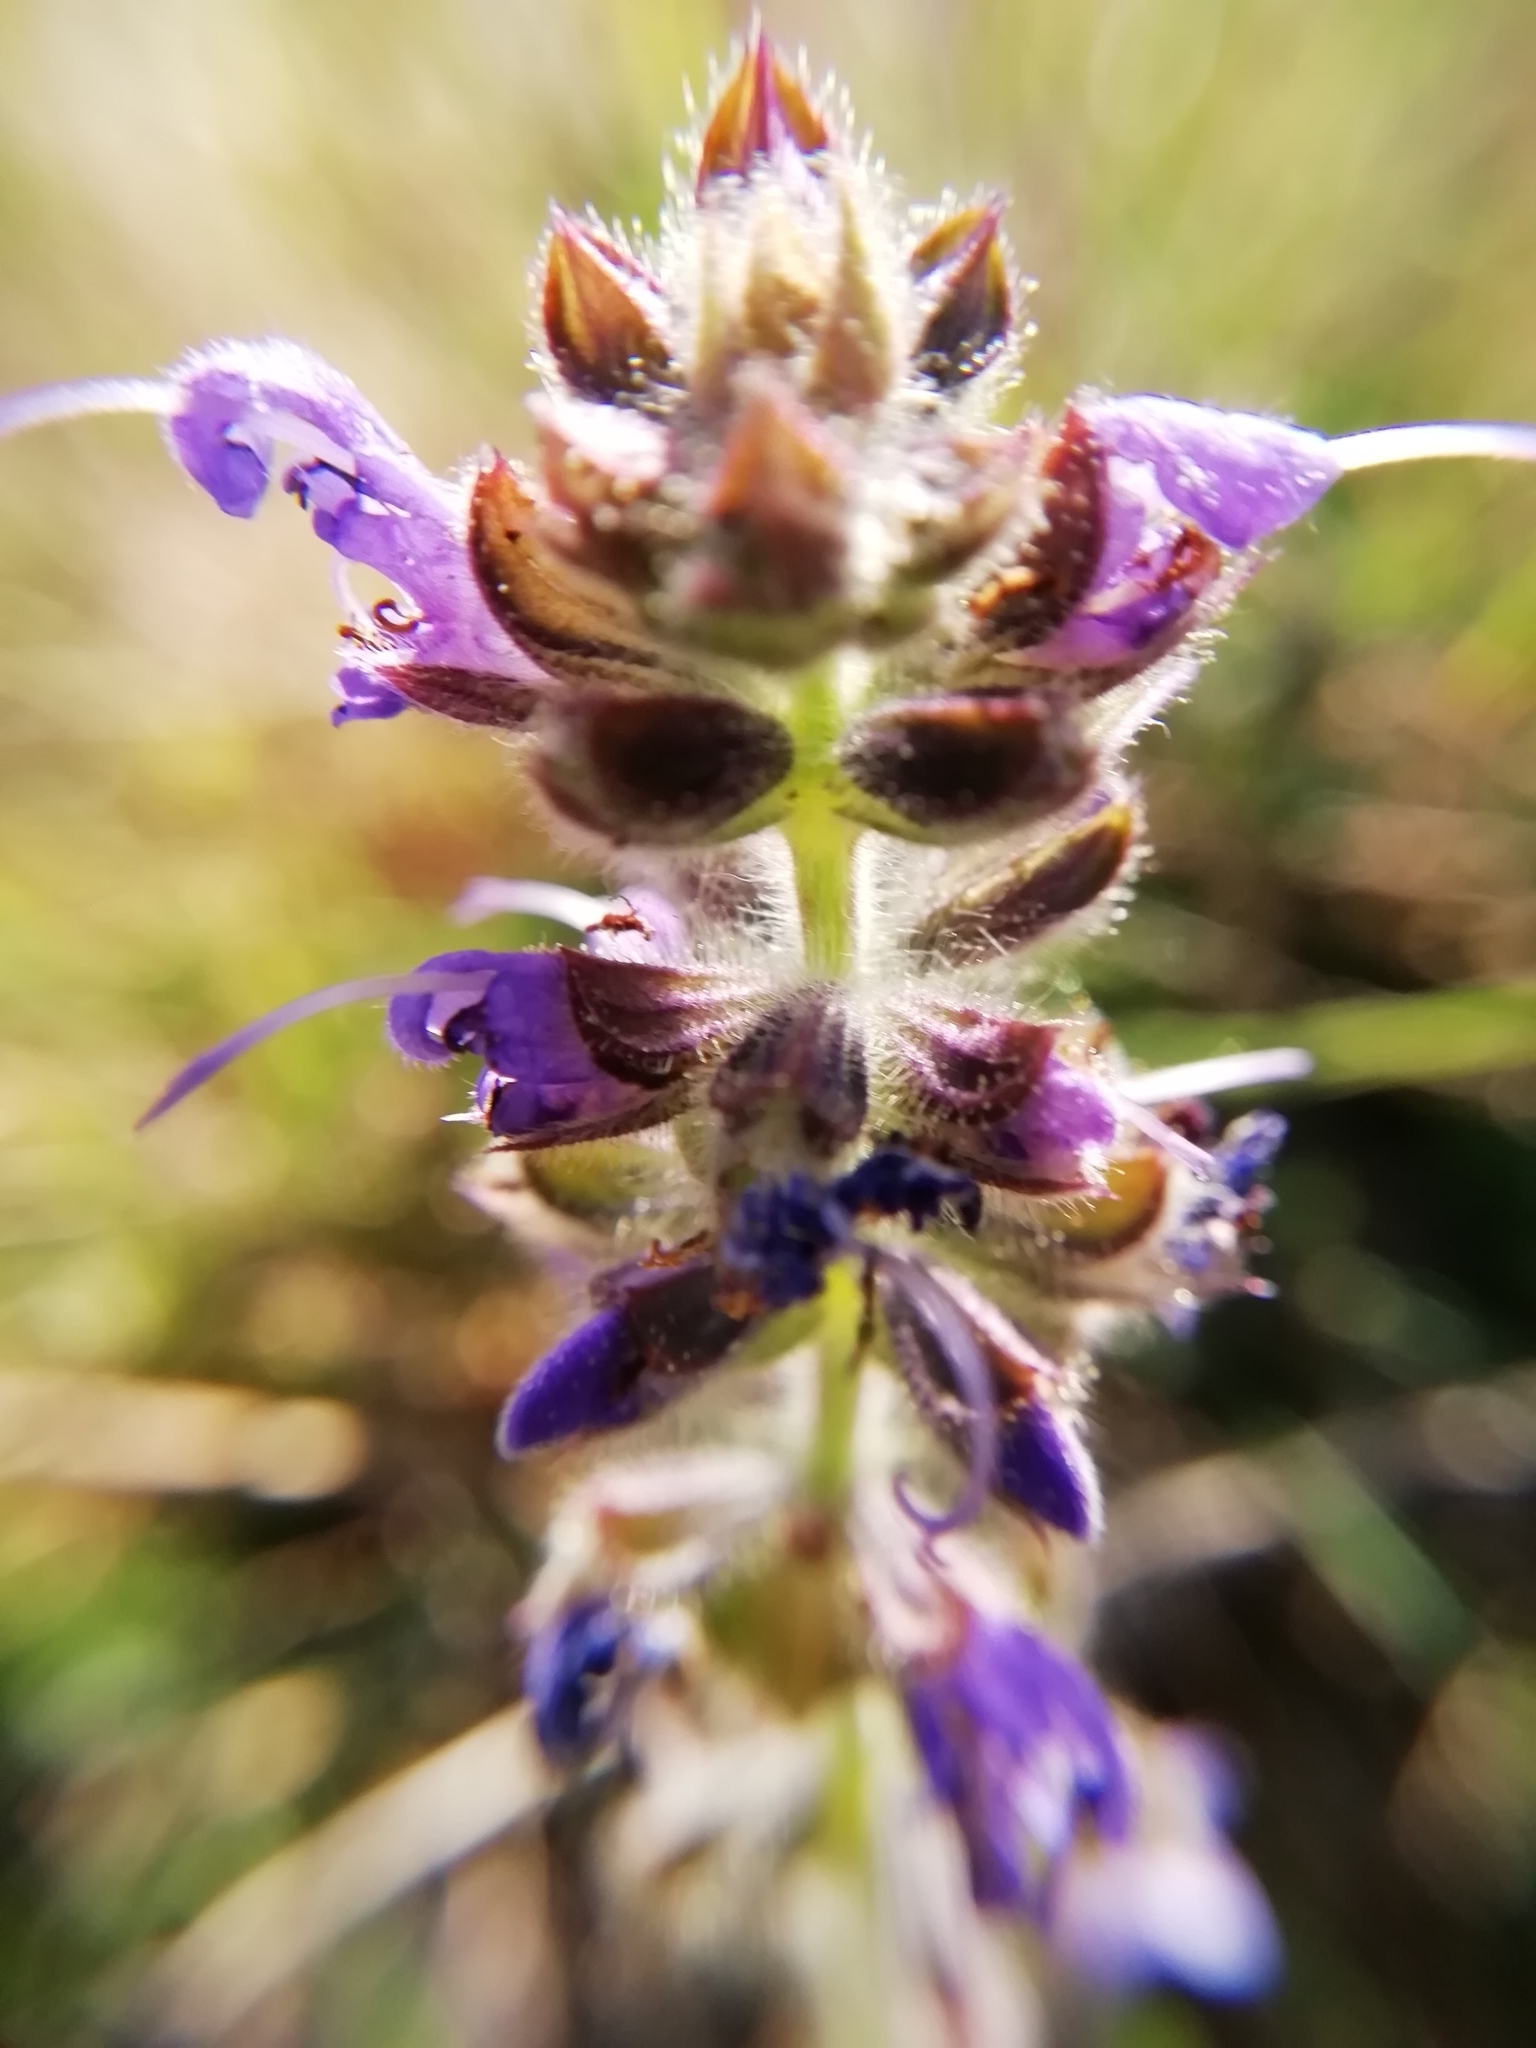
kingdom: Plantae
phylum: Tracheophyta
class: Magnoliopsida
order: Lamiales
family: Lamiaceae
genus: Salvia
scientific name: Salvia verbenaca
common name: Wild clary
